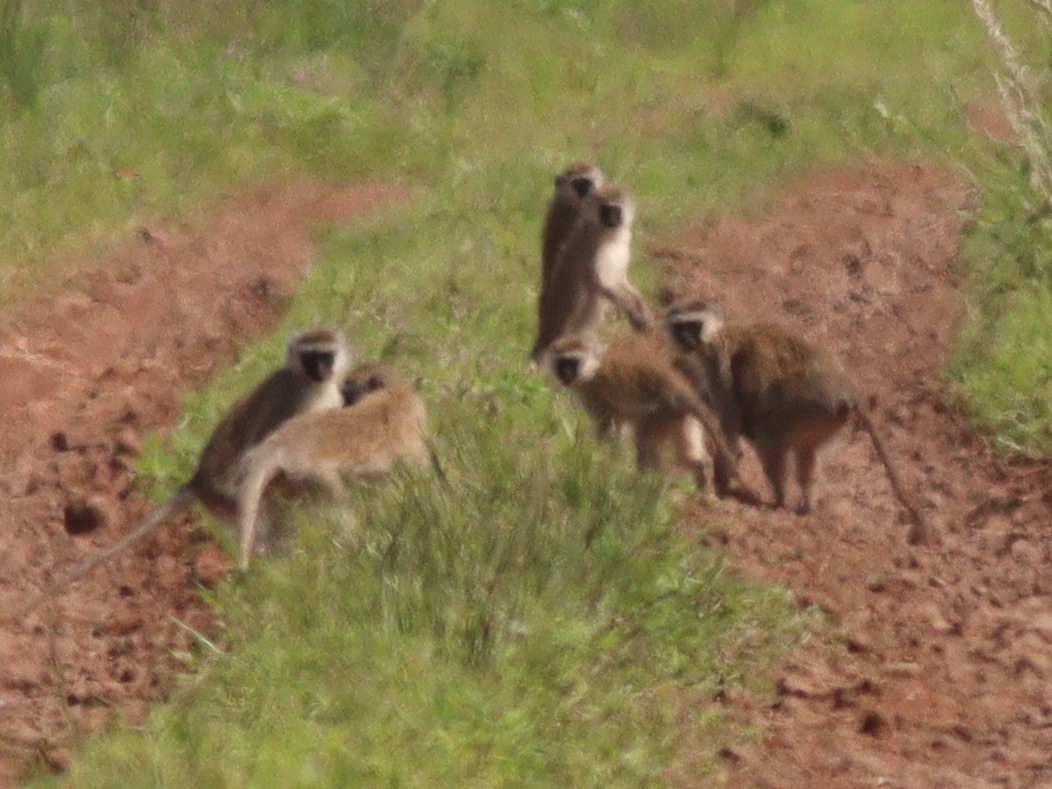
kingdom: Animalia
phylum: Chordata
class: Mammalia
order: Primates
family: Cercopithecidae
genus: Chlorocebus
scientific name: Chlorocebus pygerythrus
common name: Vervet monkey
